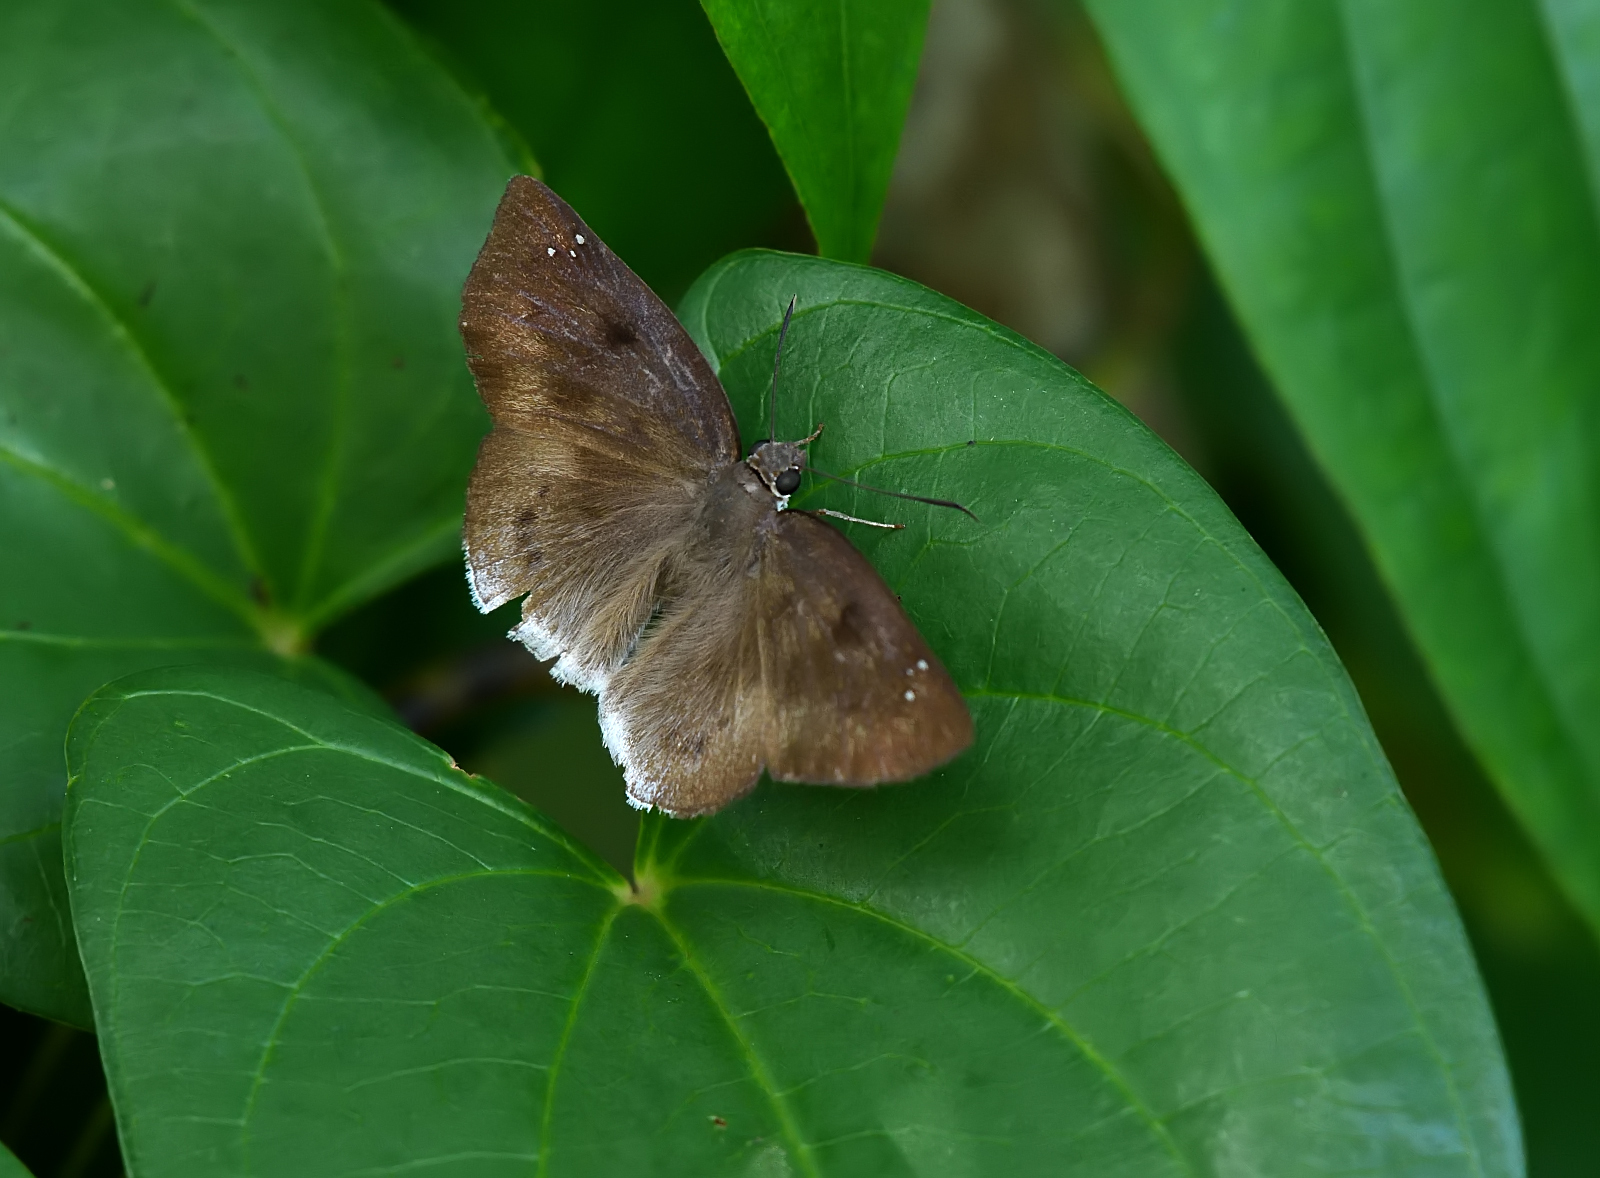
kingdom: Animalia
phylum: Arthropoda
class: Insecta
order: Lepidoptera
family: Hesperiidae
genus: Tagiades
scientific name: Tagiades gana
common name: Suffused snow flat
